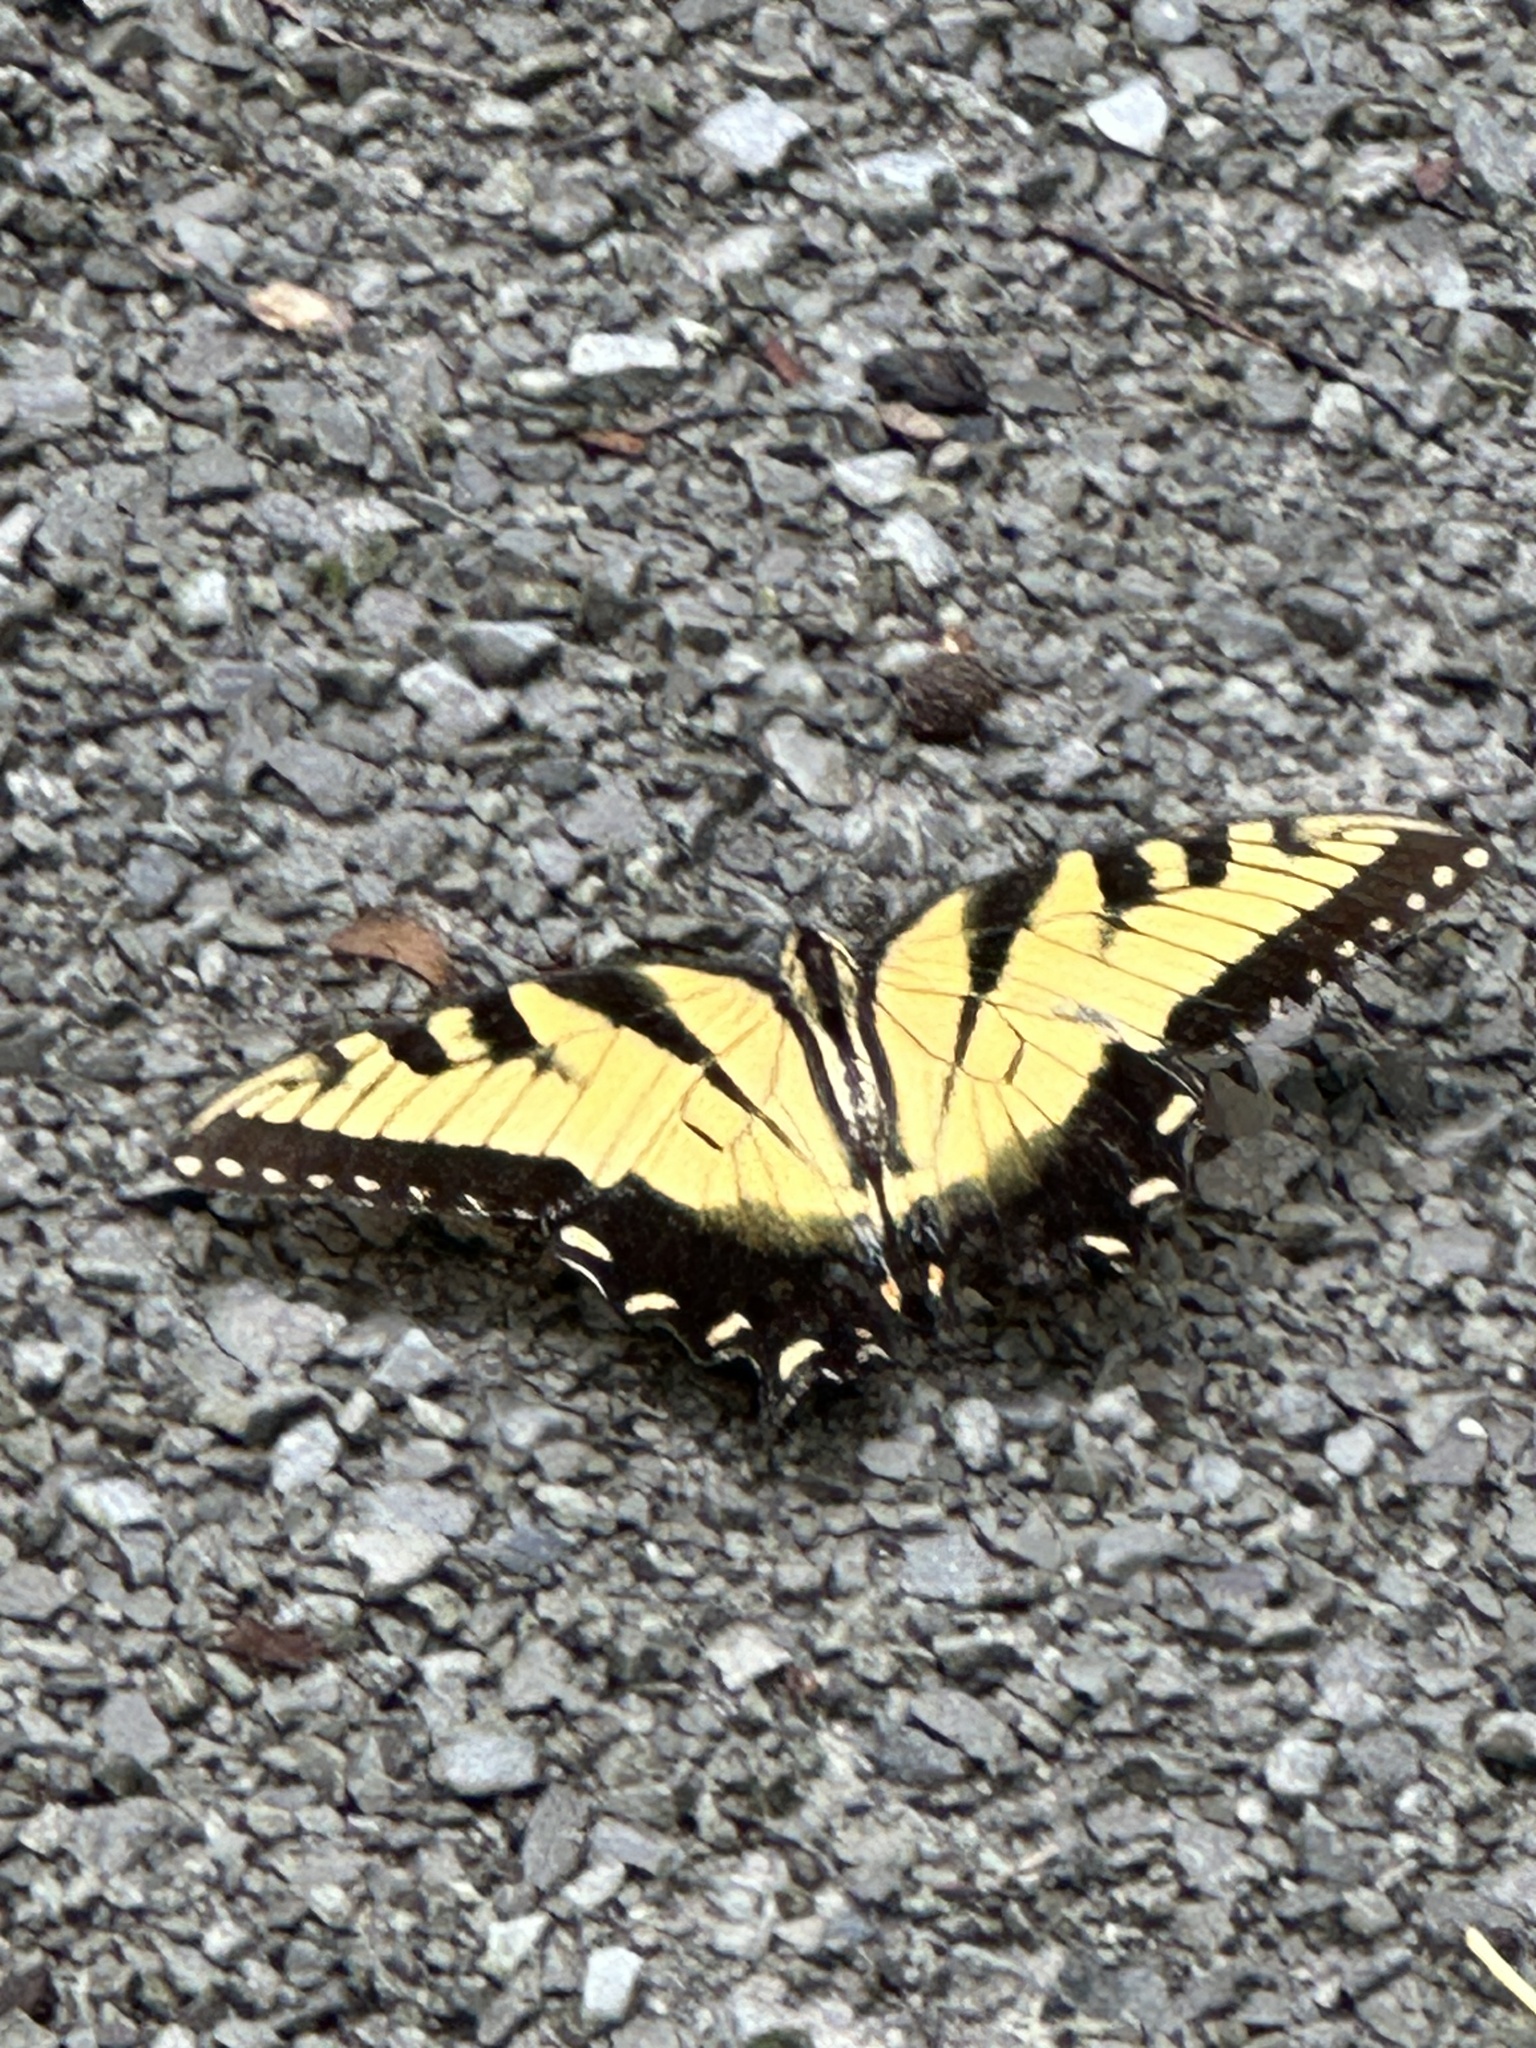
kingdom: Animalia
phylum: Arthropoda
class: Insecta
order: Lepidoptera
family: Papilionidae
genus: Papilio
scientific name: Papilio glaucus
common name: Tiger swallowtail
